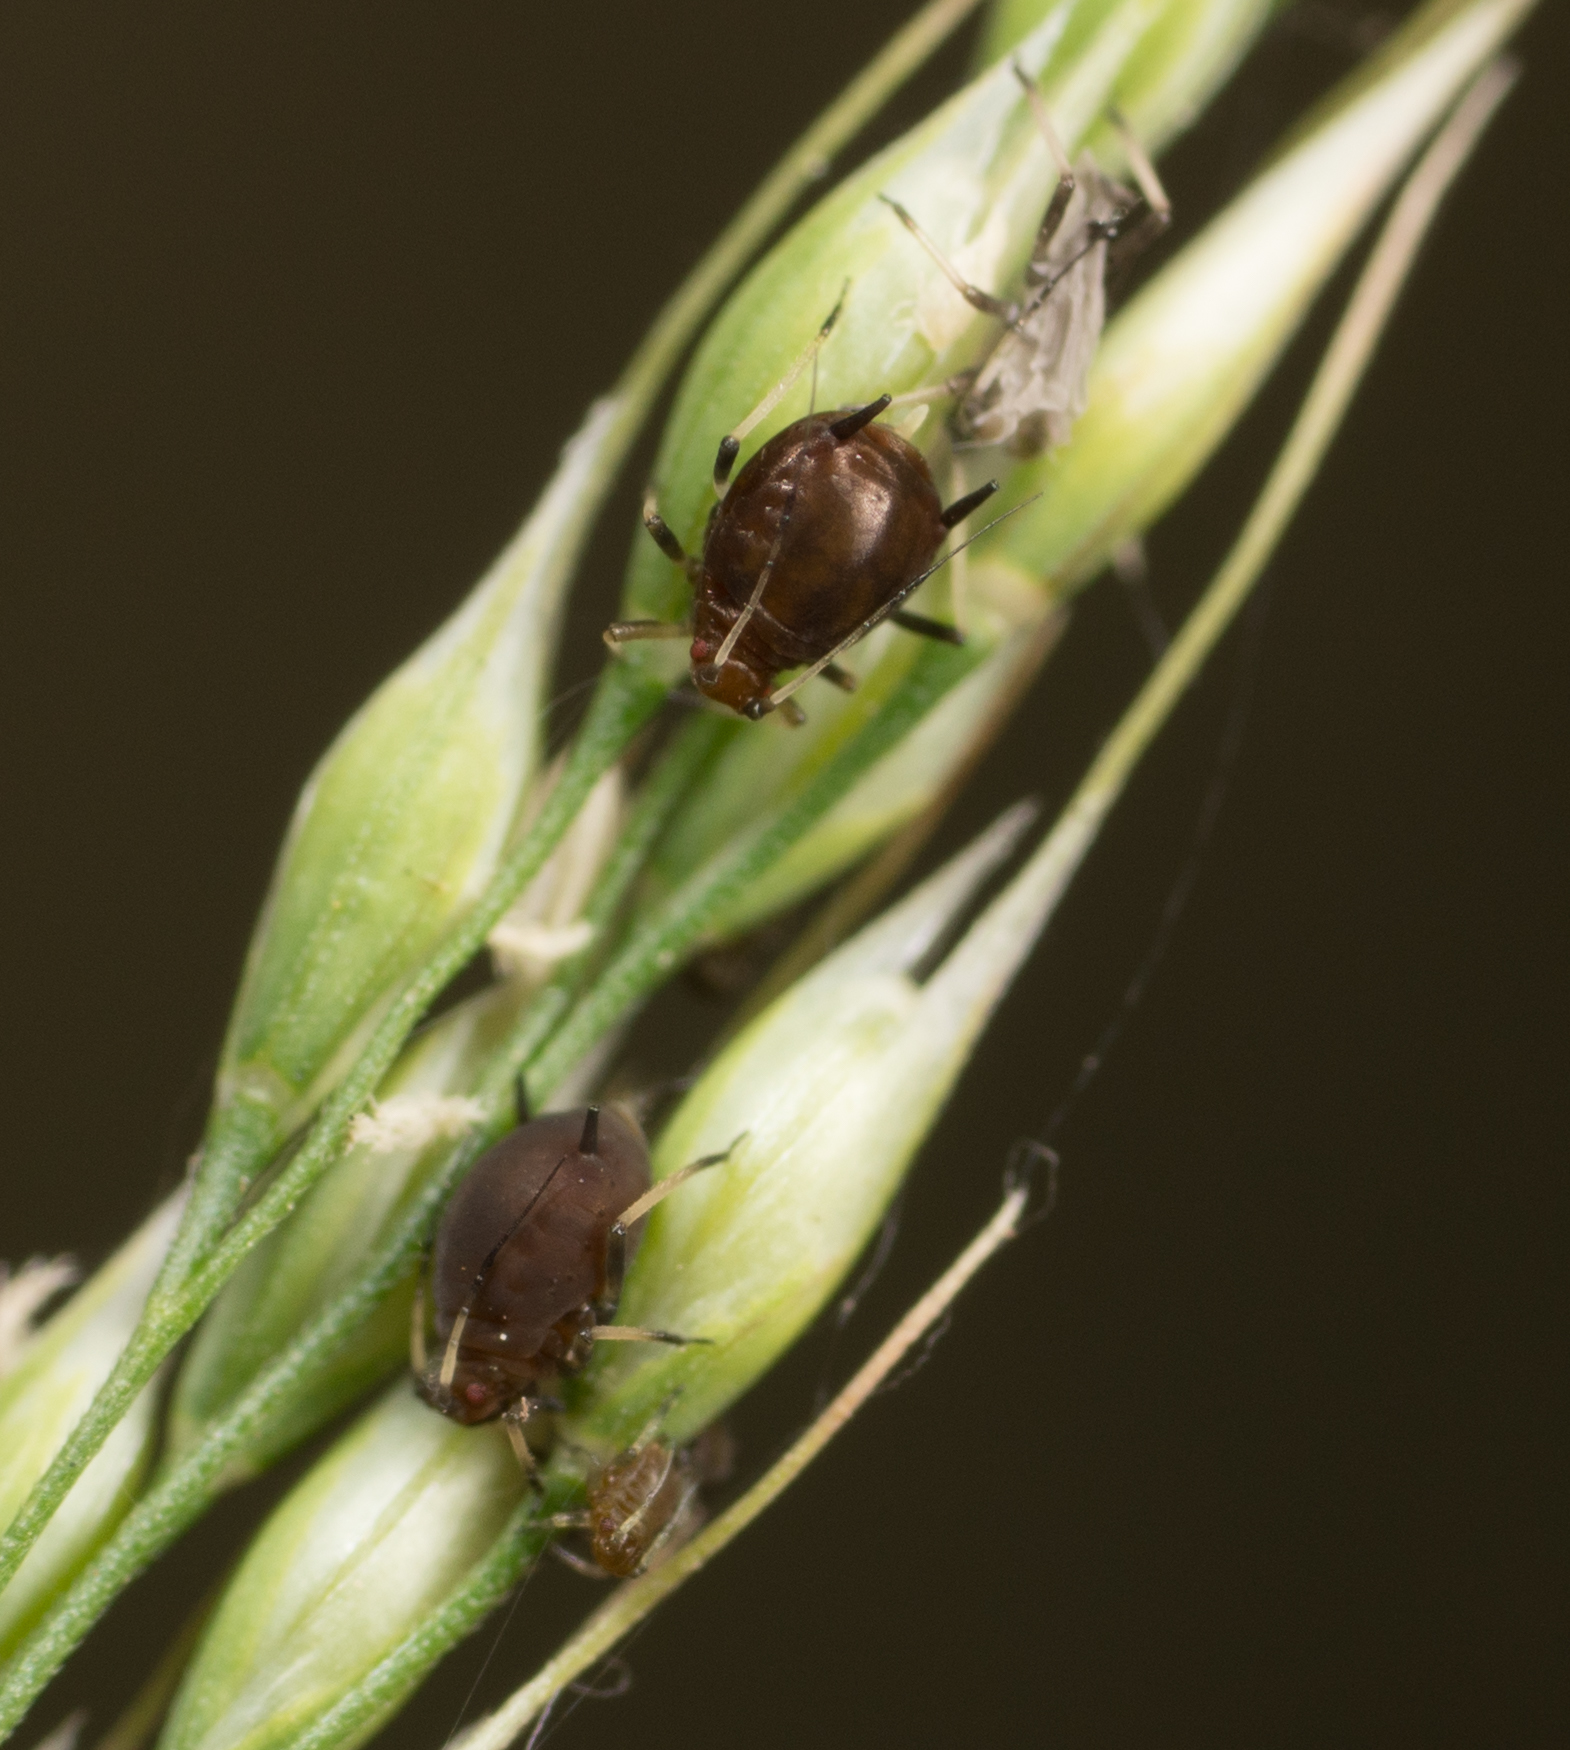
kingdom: Animalia
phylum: Arthropoda
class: Insecta
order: Hemiptera
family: Aphididae
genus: Hysteroneura
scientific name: Hysteroneura setariae
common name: Rusty plum aphid
